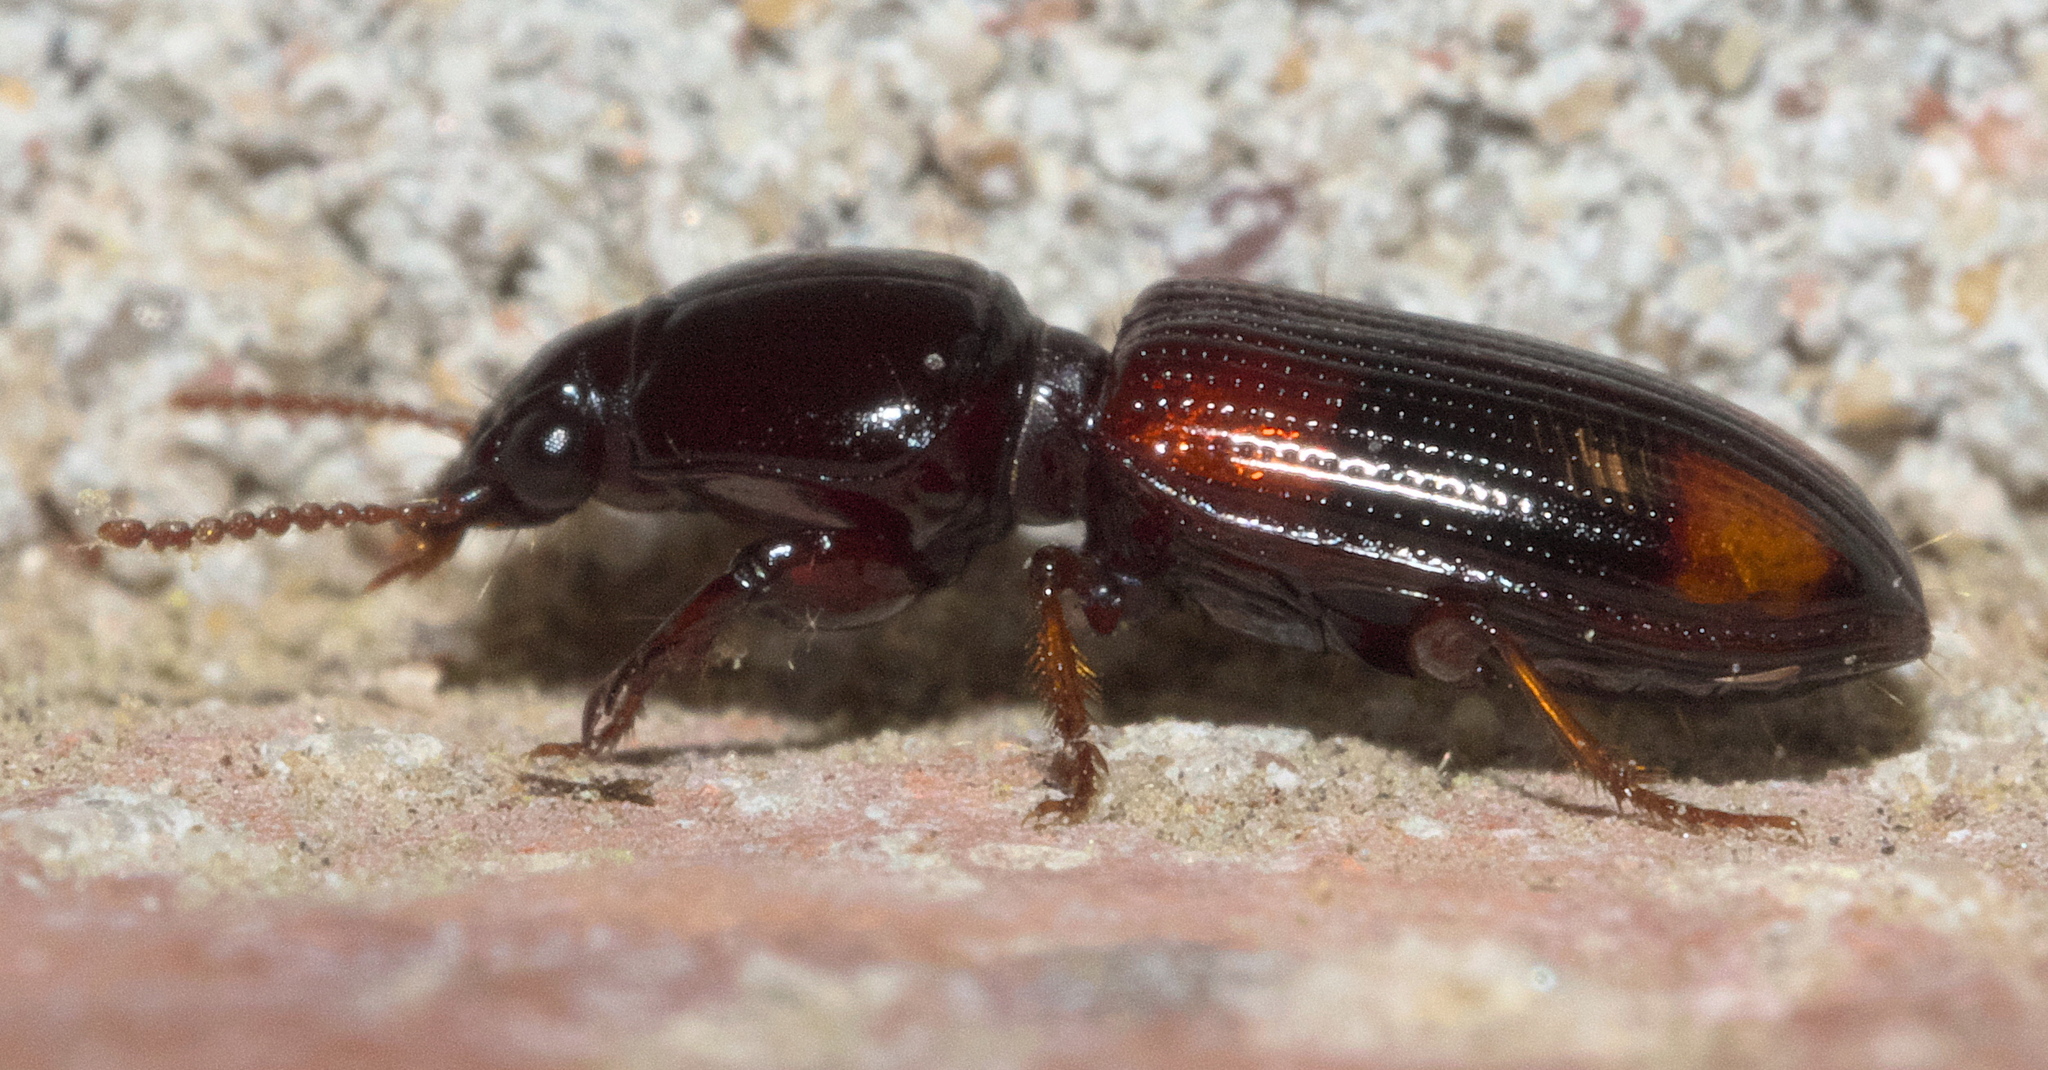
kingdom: Animalia
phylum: Arthropoda
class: Insecta
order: Coleoptera
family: Carabidae
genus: Clivina
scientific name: Clivina bipustulata
